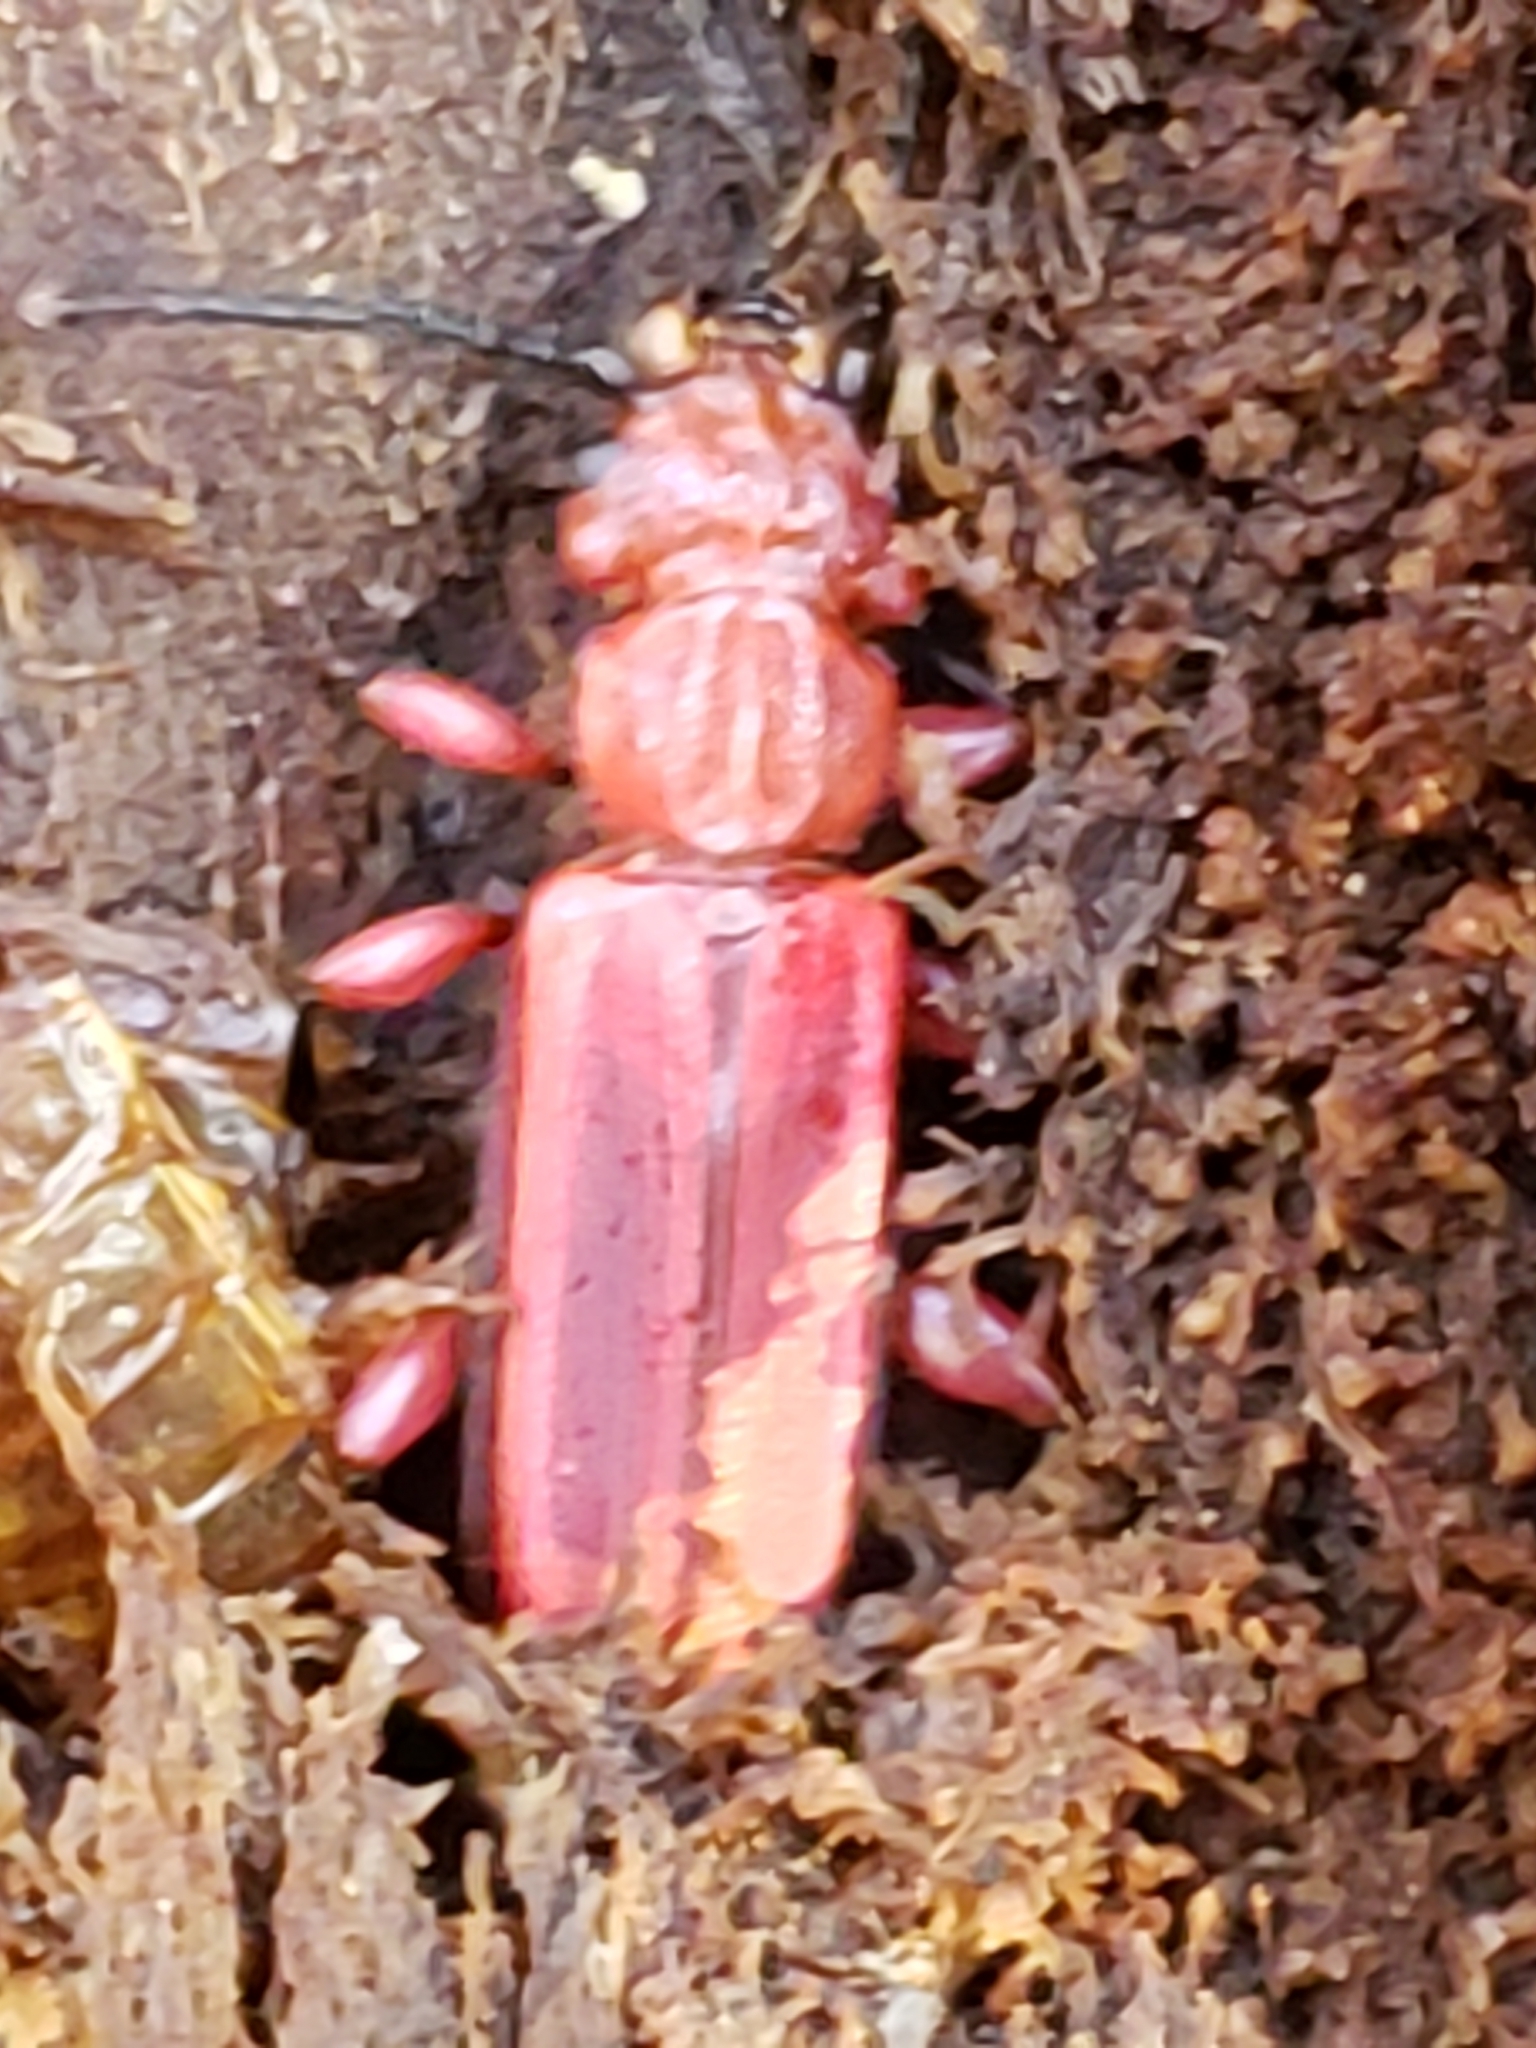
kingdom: Animalia
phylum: Arthropoda
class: Insecta
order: Coleoptera
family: Cucujidae
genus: Cucujus
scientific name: Cucujus clavipes
